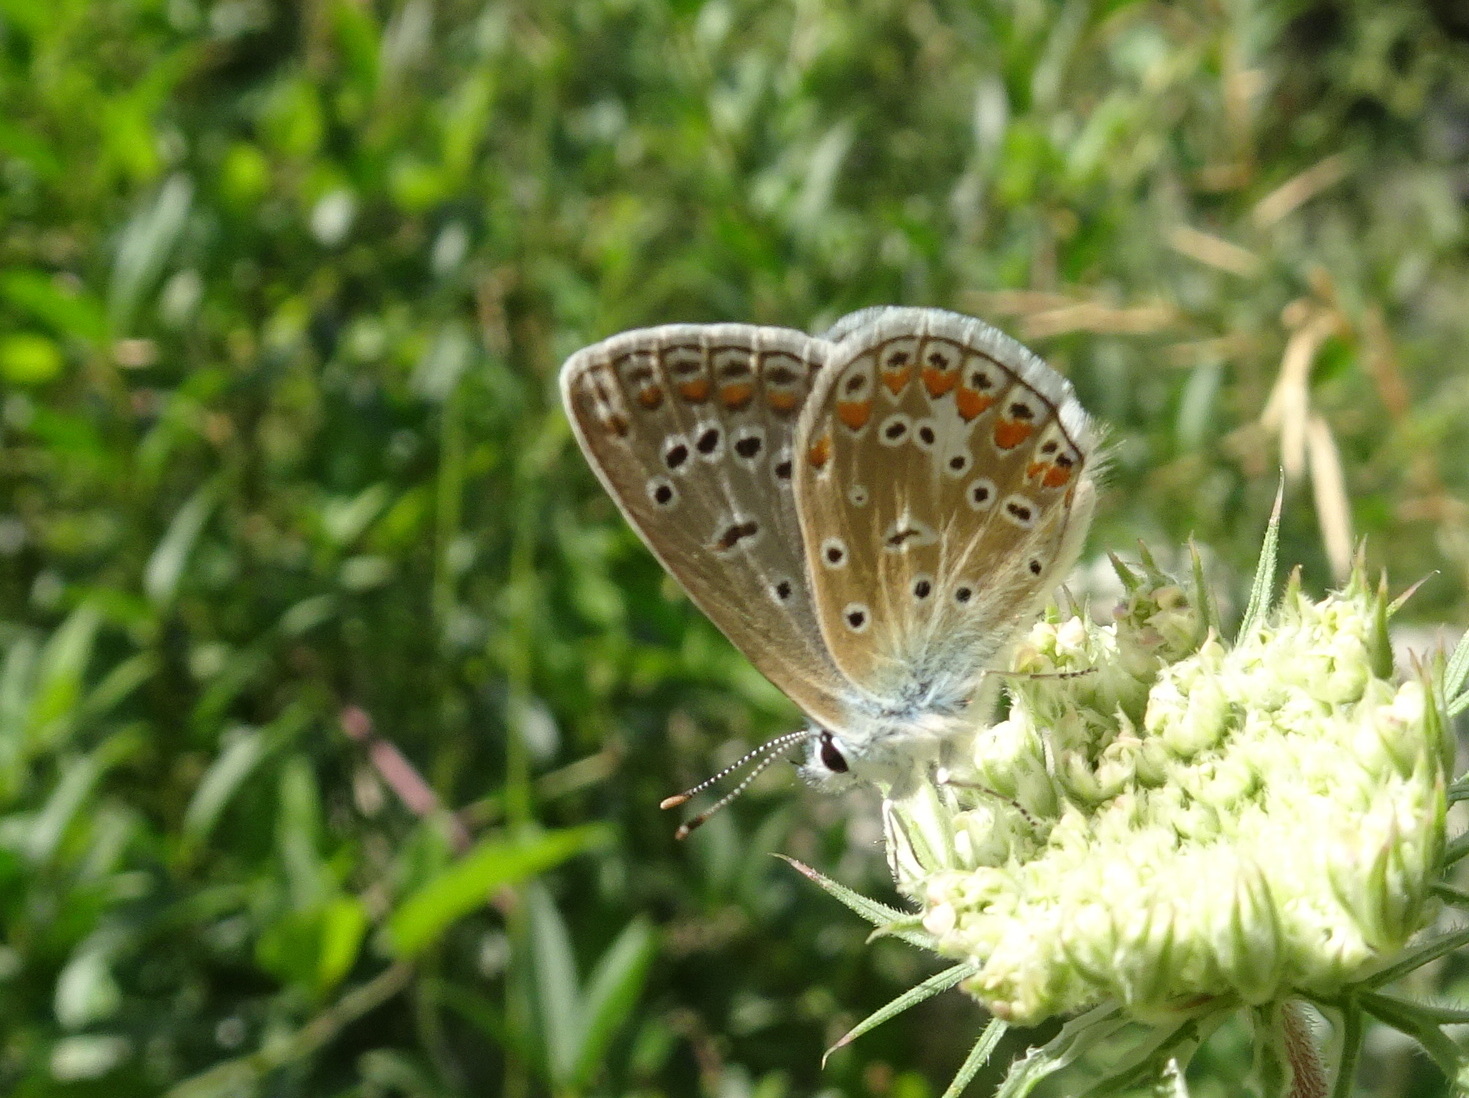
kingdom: Animalia
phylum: Arthropoda
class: Insecta
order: Lepidoptera
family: Lycaenidae
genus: Polyommatus
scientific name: Polyommatus icarus
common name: Common blue
